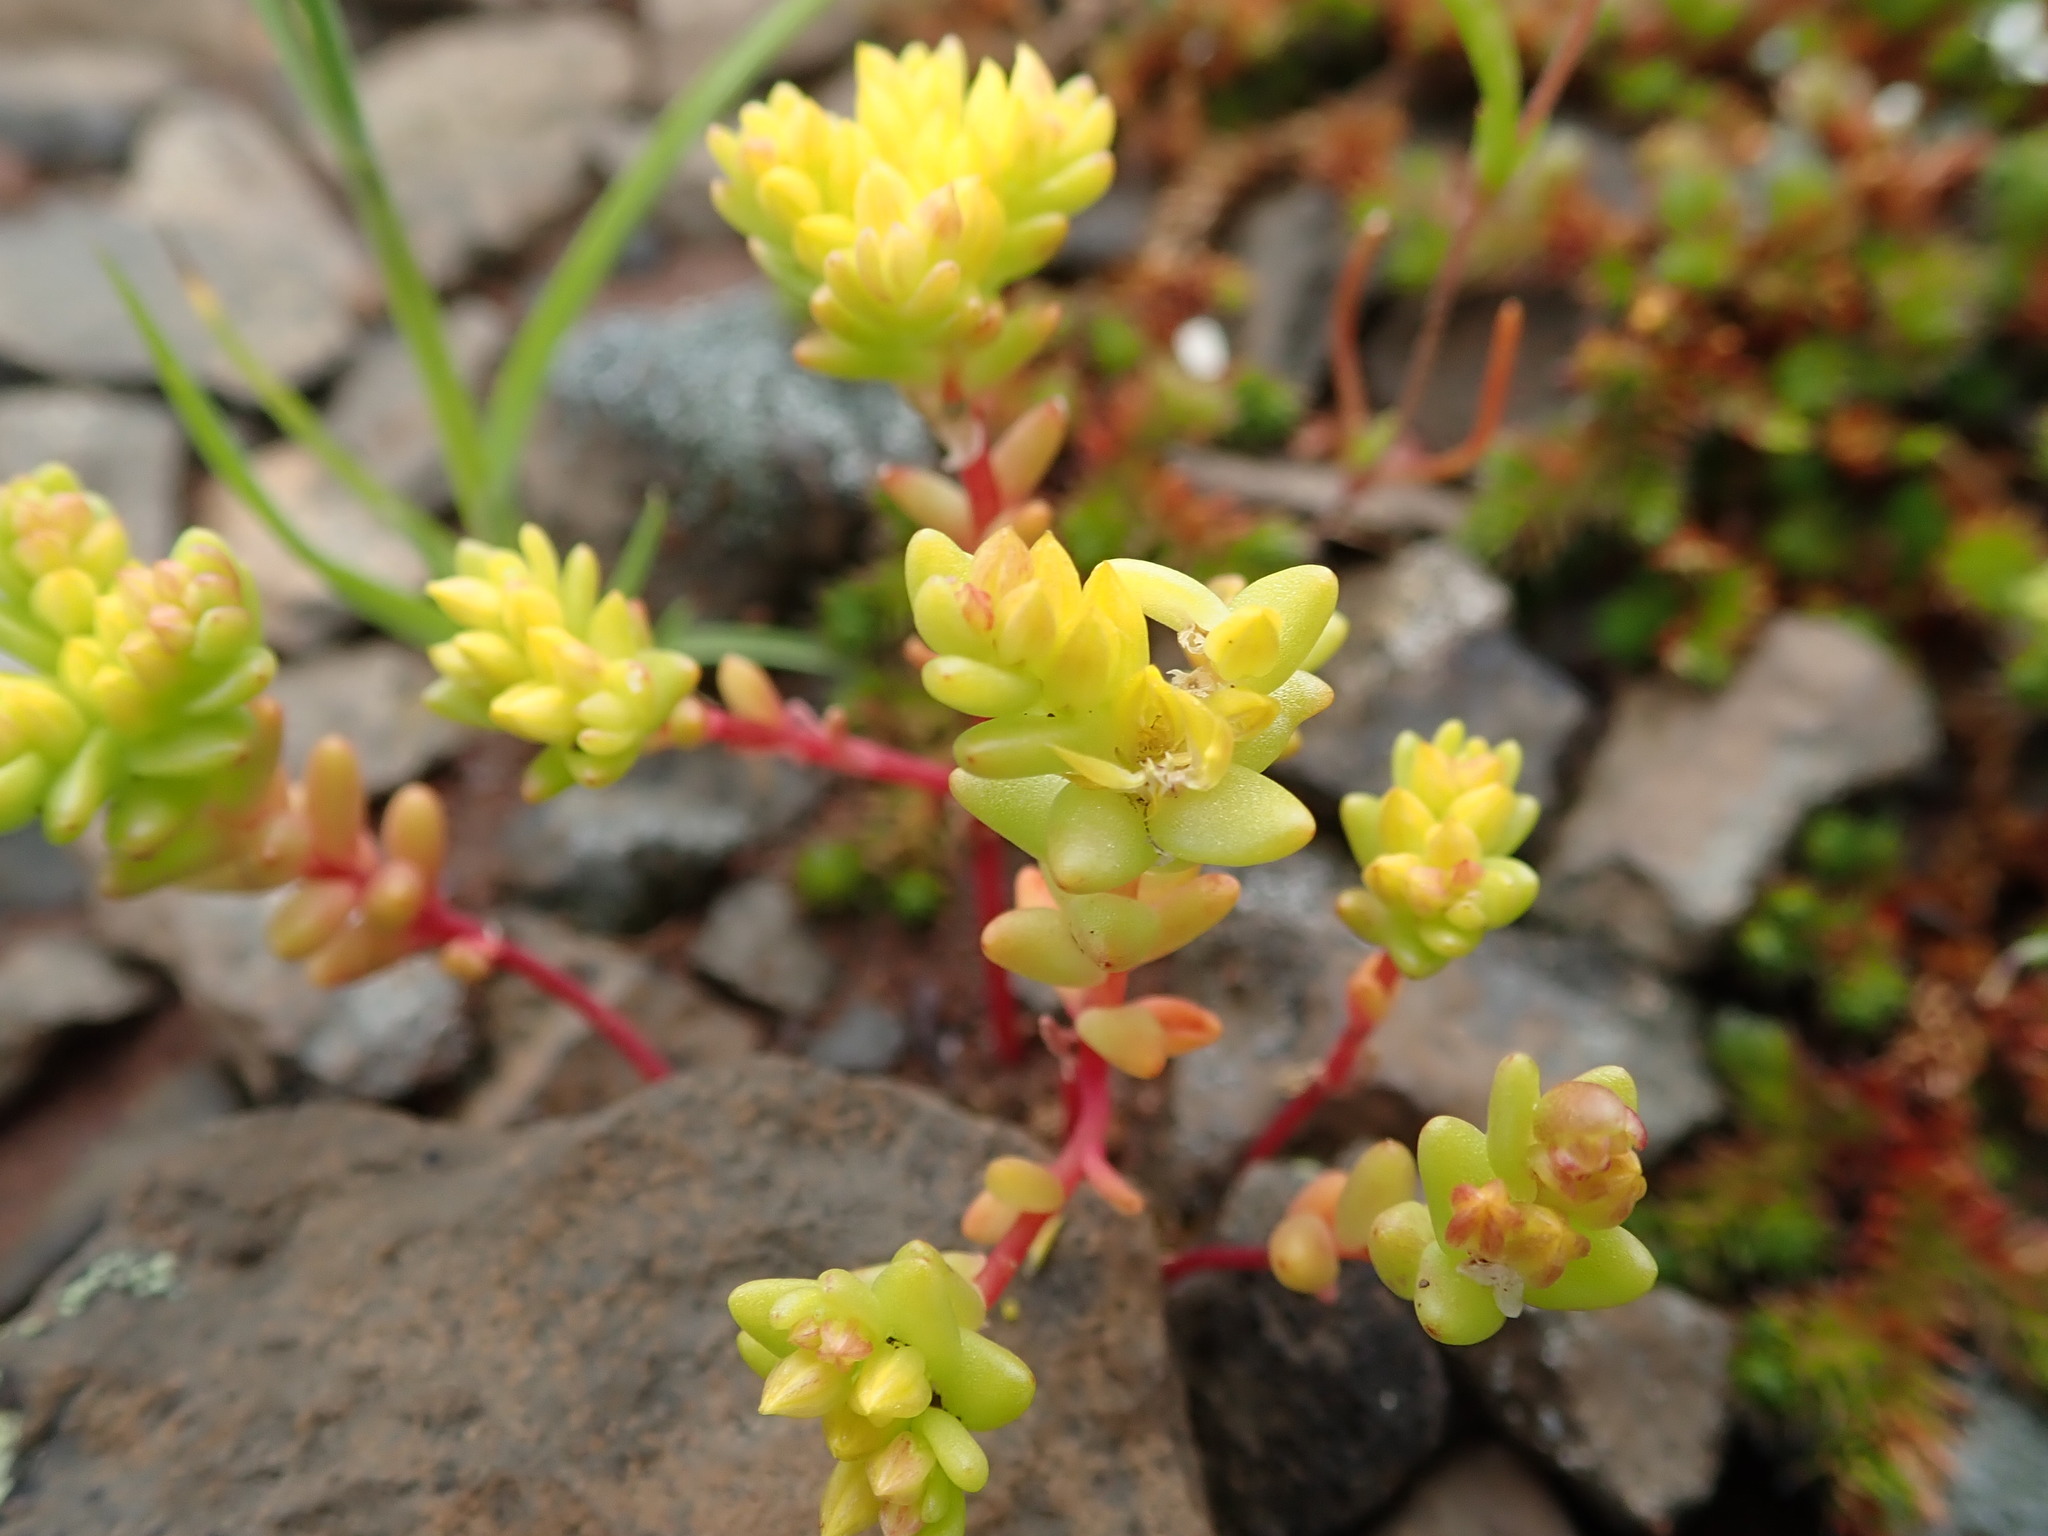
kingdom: Plantae
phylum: Tracheophyta
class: Magnoliopsida
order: Saxifragales
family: Crassulaceae
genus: Sedella
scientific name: Sedella pumila
